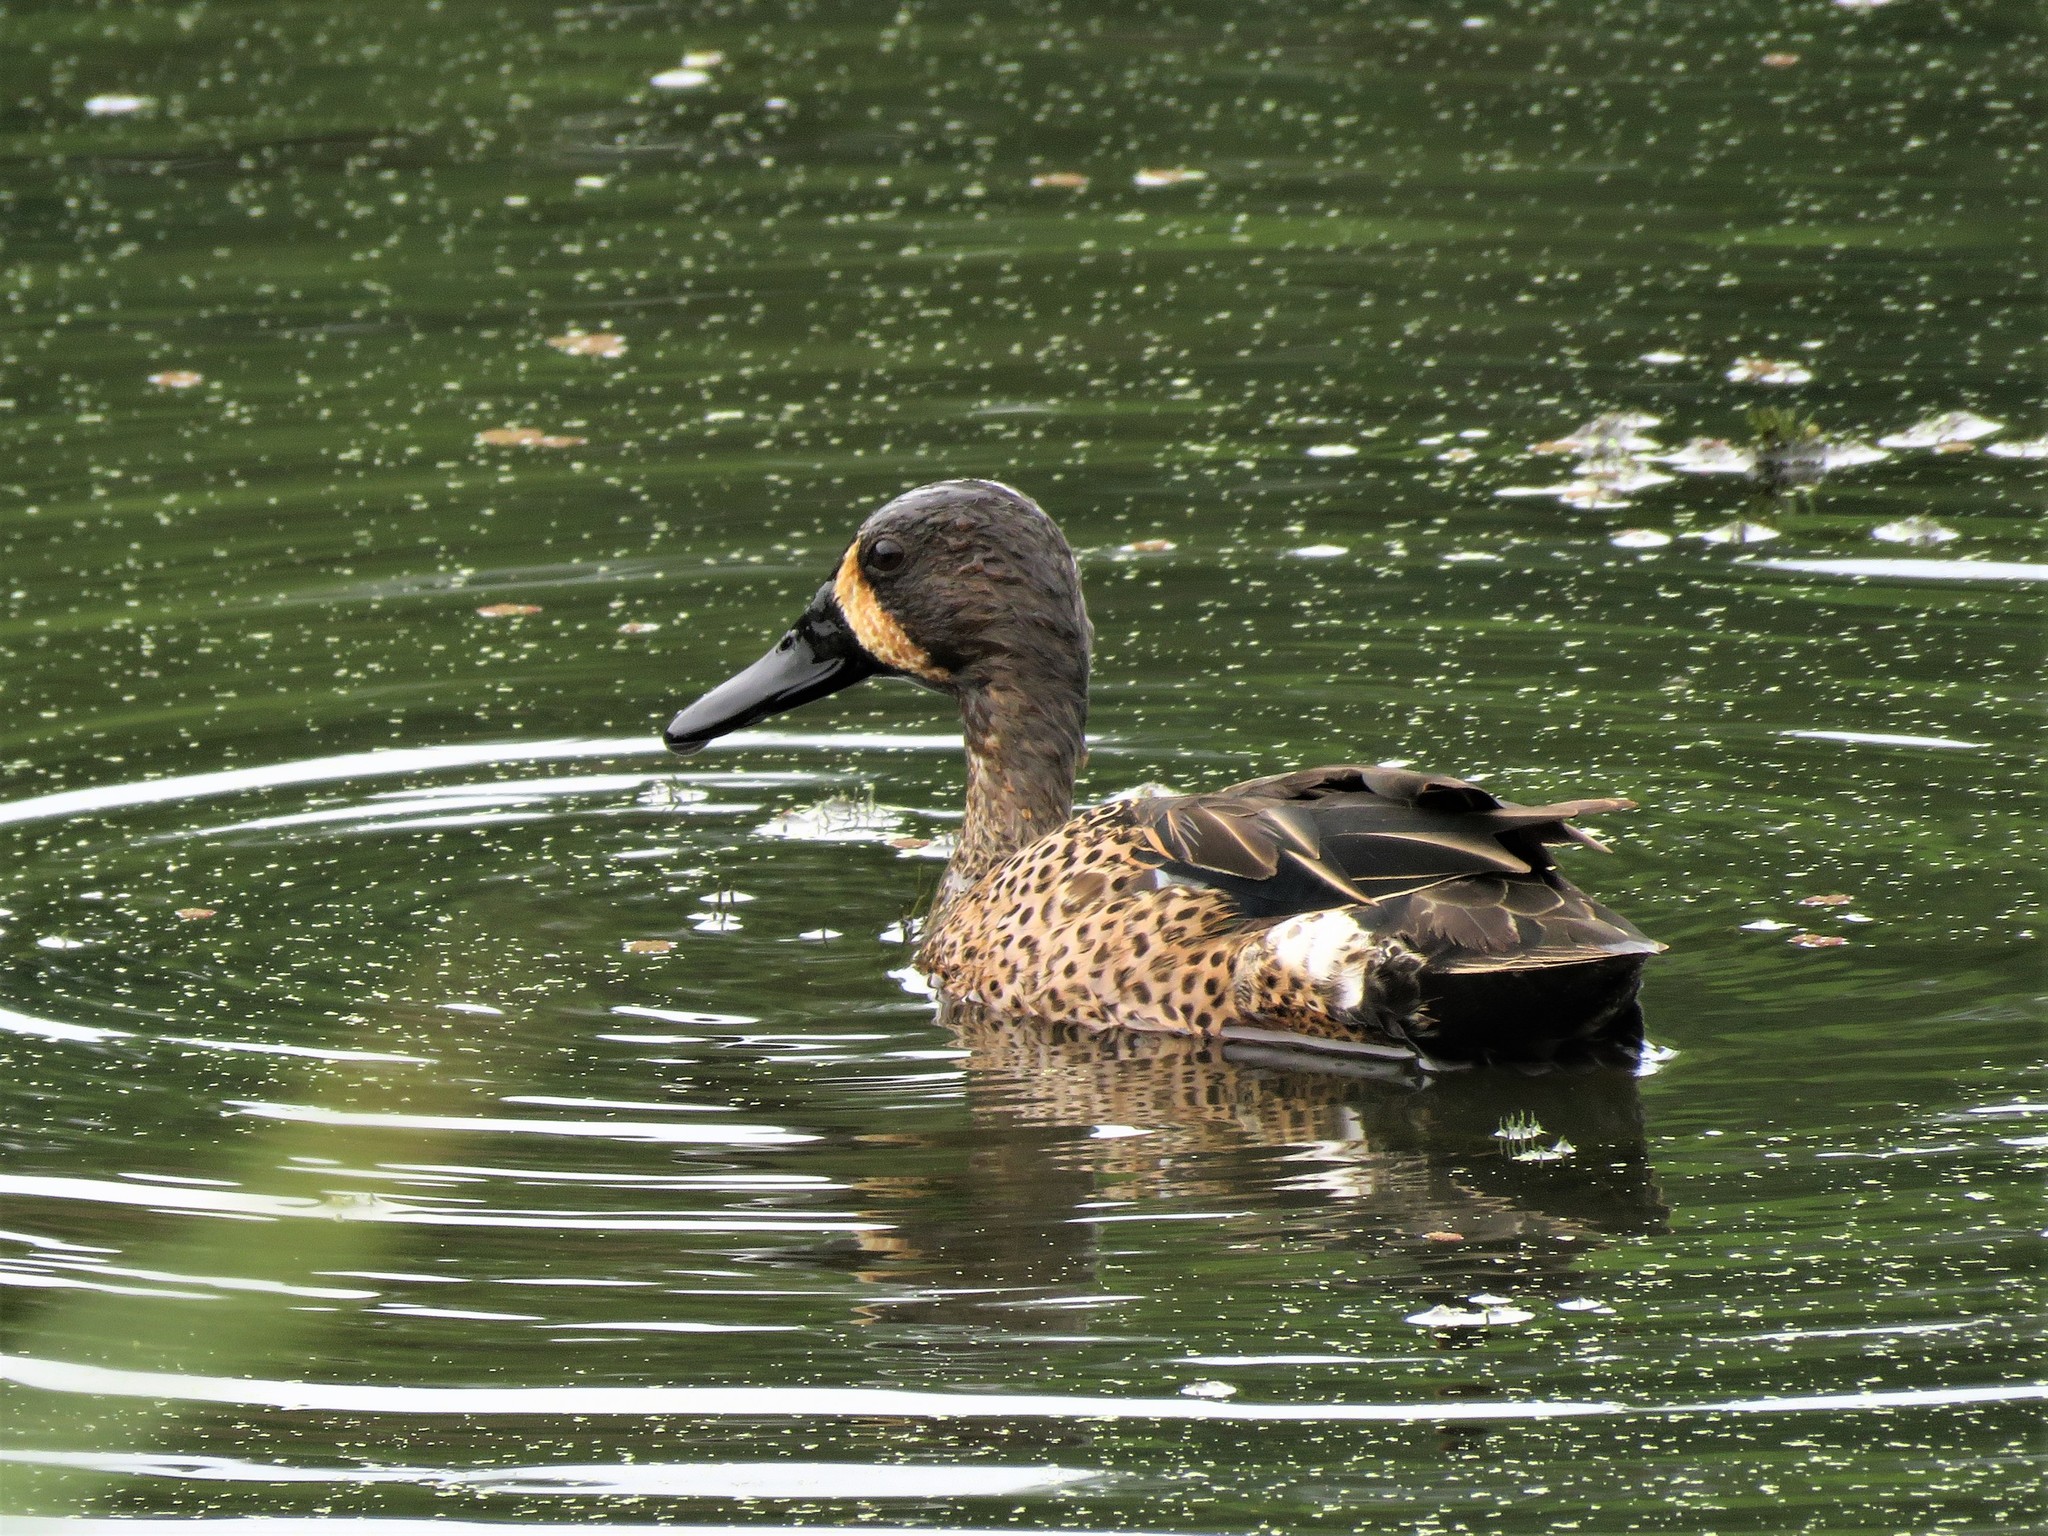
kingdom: Animalia
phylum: Chordata
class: Aves
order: Anseriformes
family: Anatidae
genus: Spatula
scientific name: Spatula discors
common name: Blue-winged teal
